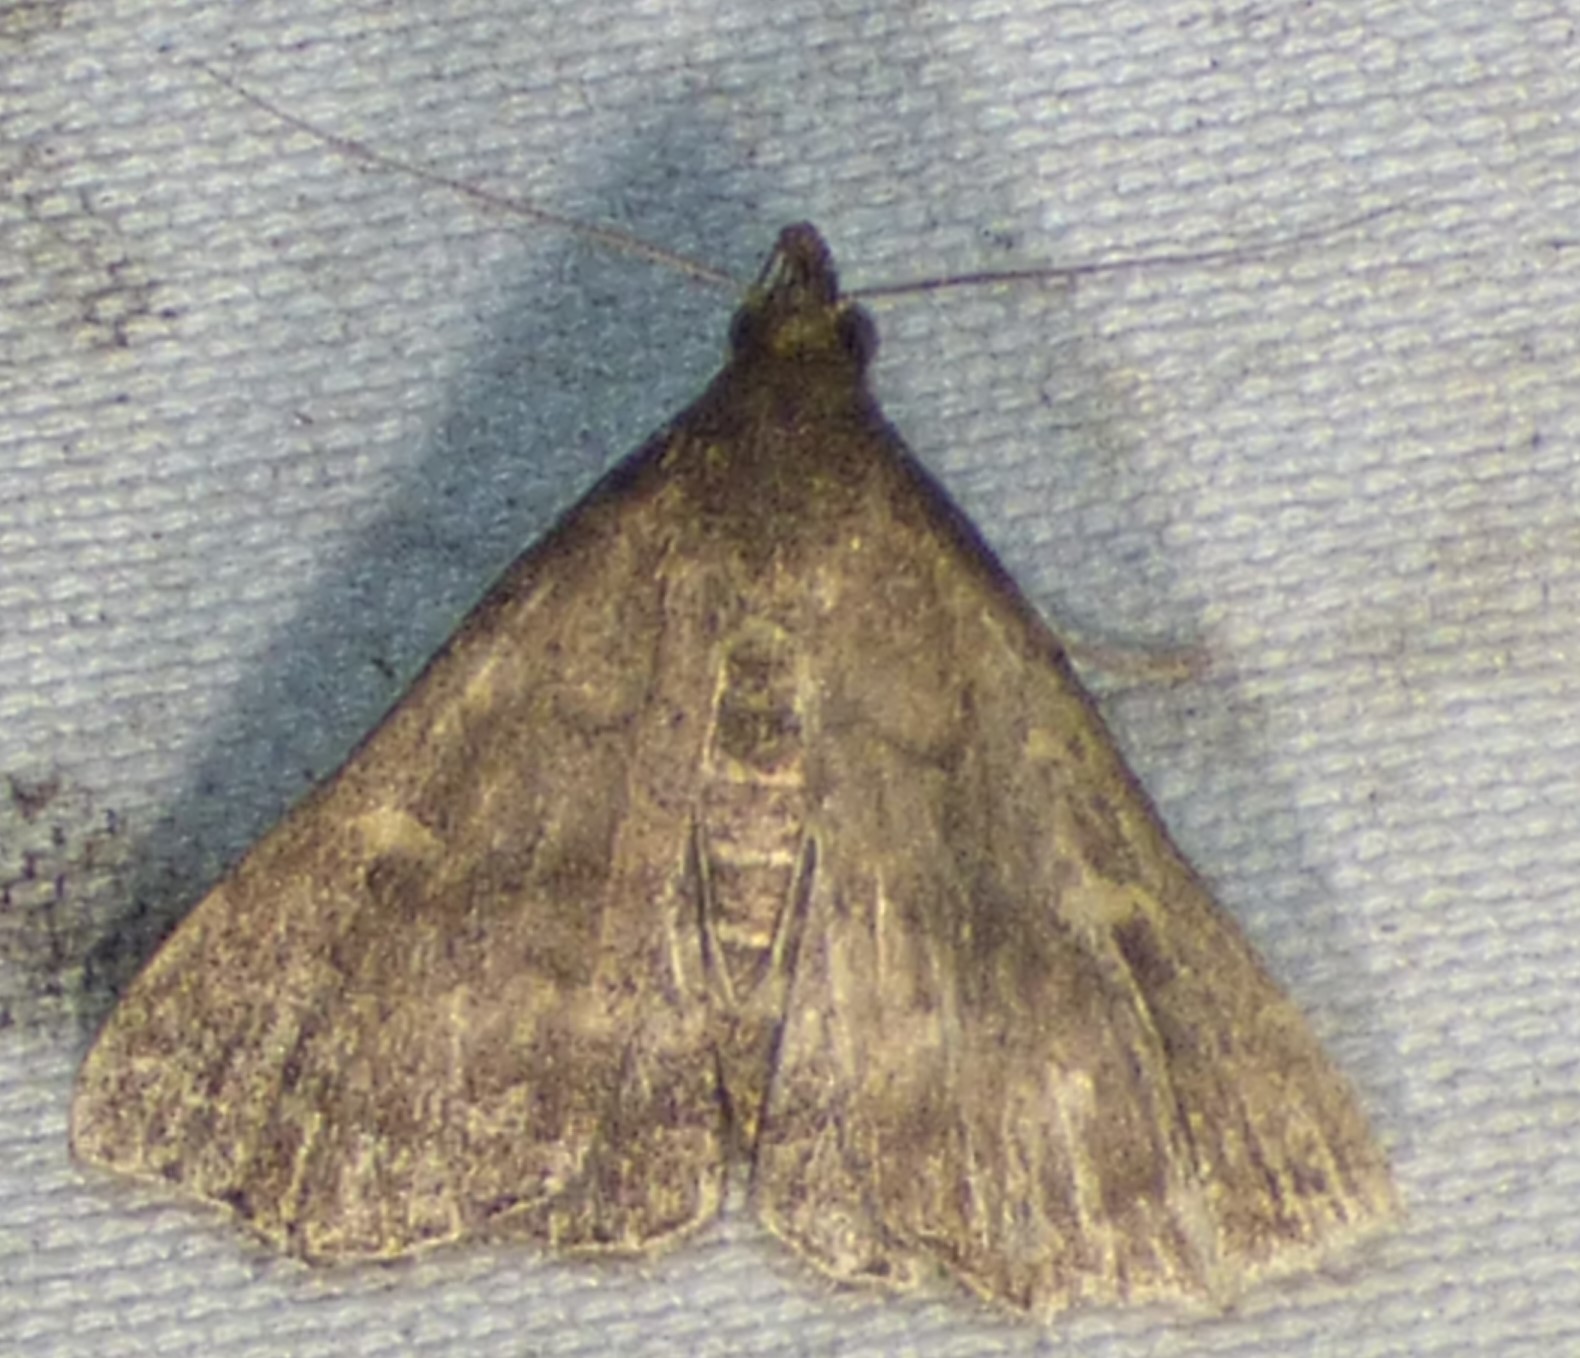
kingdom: Animalia
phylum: Arthropoda
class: Insecta
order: Lepidoptera
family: Erebidae
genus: Tetanolita
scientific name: Tetanolita floridana
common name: Florida tetanolita moth
